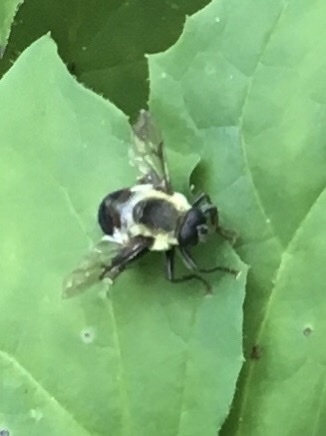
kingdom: Animalia
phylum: Arthropoda
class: Insecta
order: Diptera
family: Syrphidae
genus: Imatisma
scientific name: Imatisma posticata
